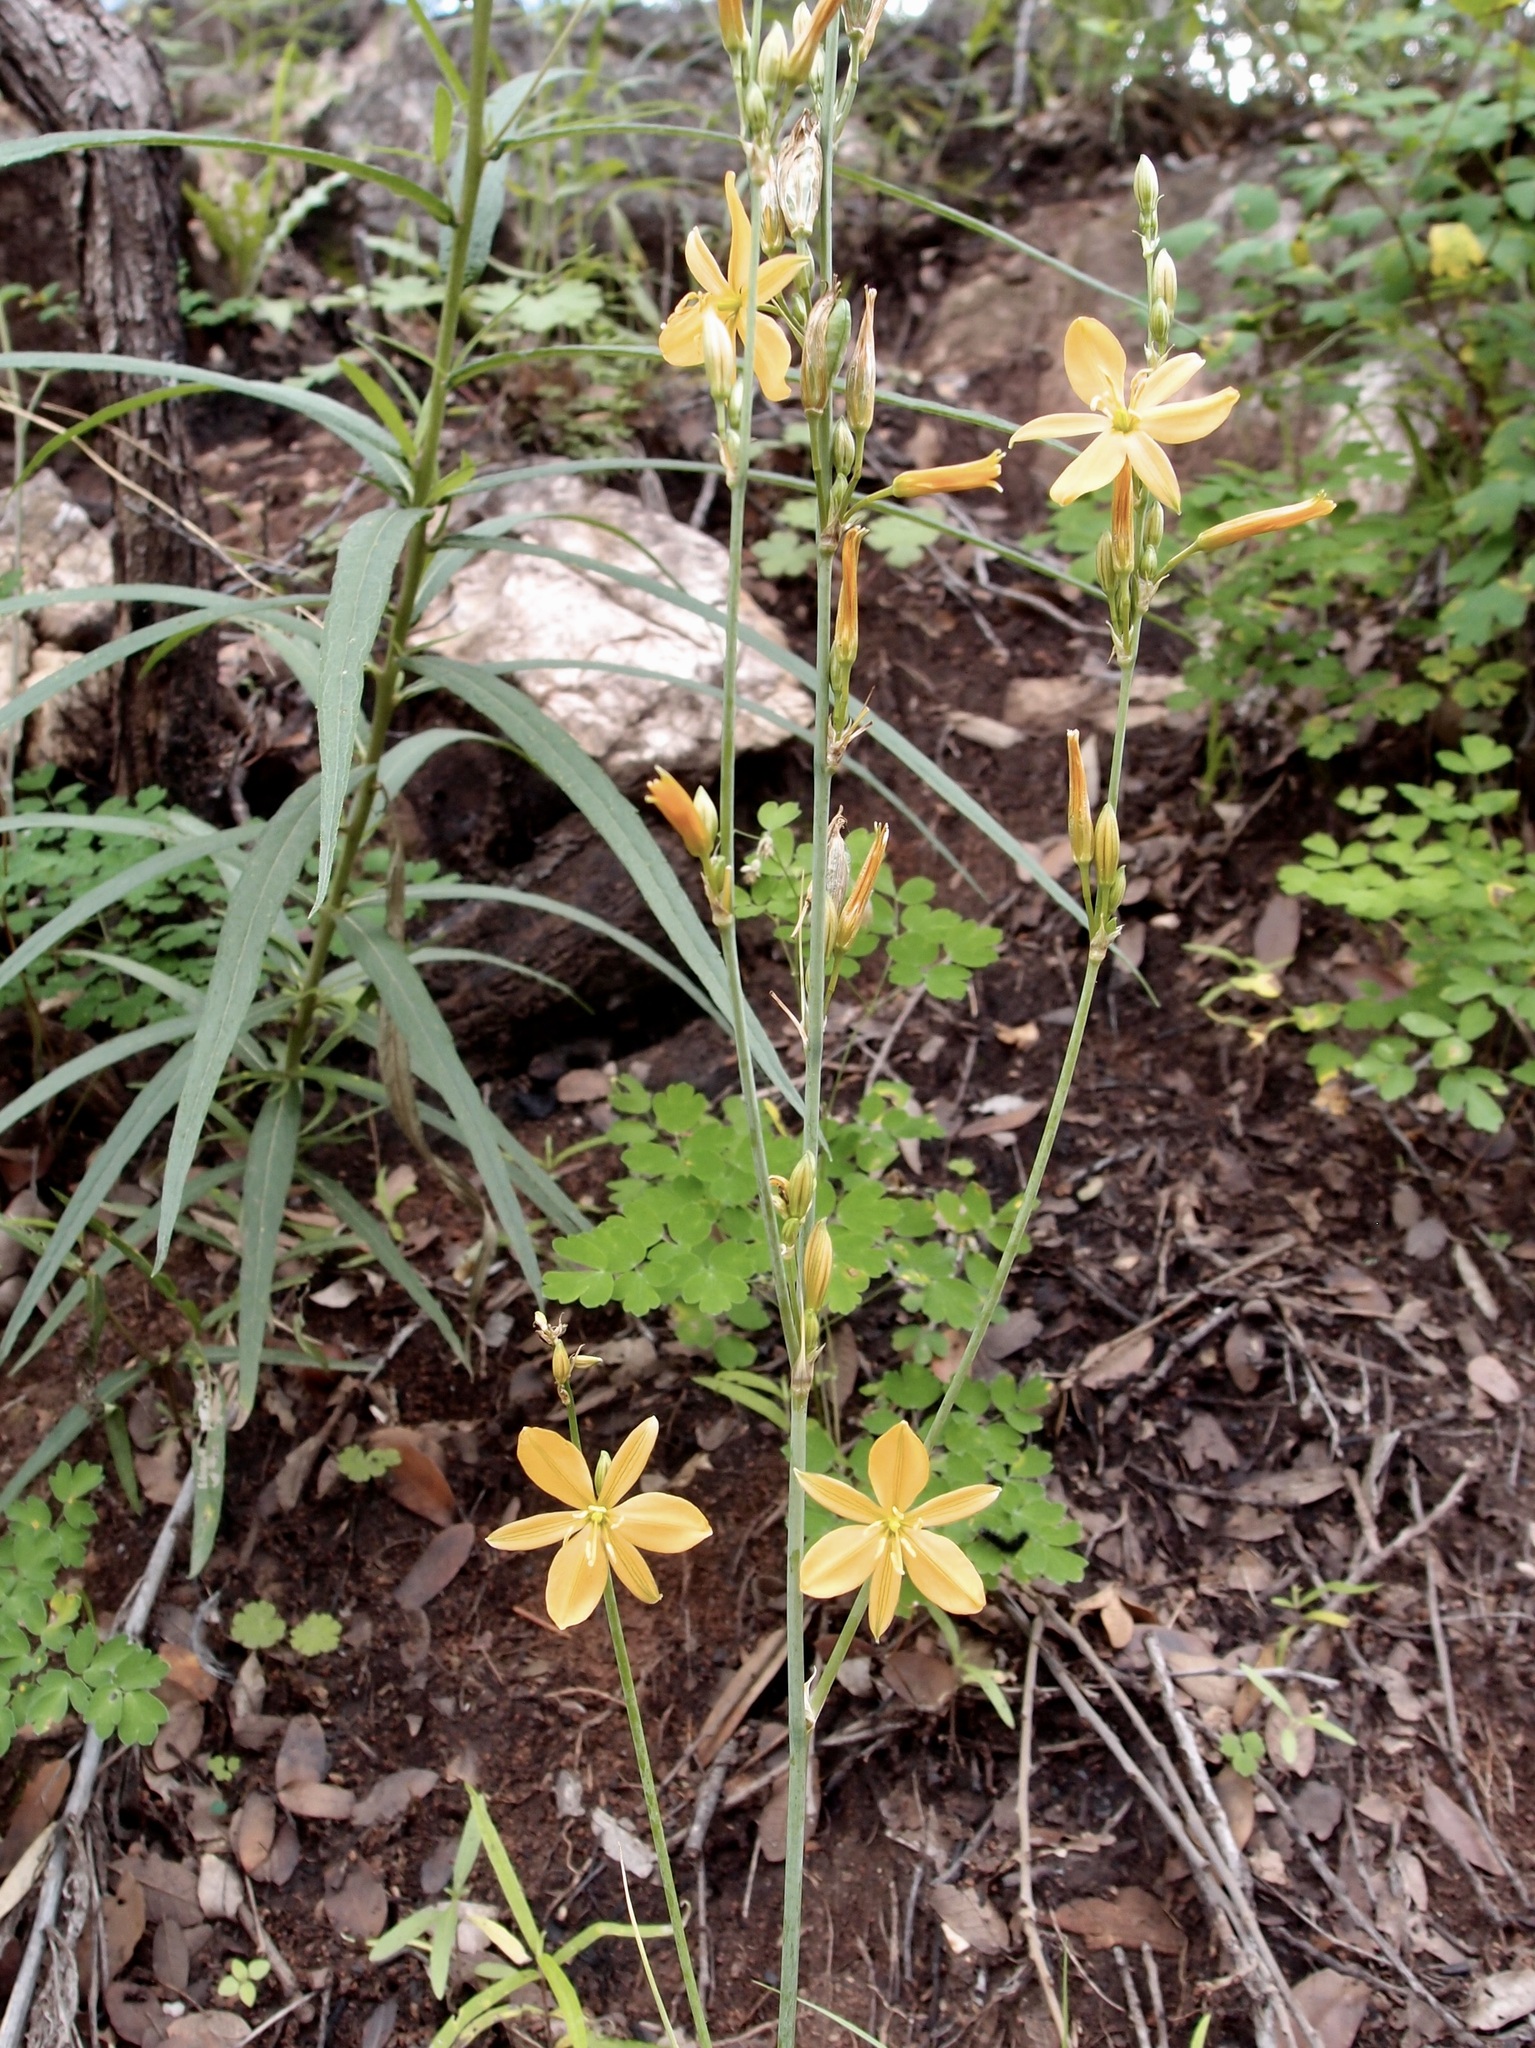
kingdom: Plantae
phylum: Tracheophyta
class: Liliopsida
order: Asparagales
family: Asparagaceae
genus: Echeandia
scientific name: Echeandia flavescens
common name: Amberlily
